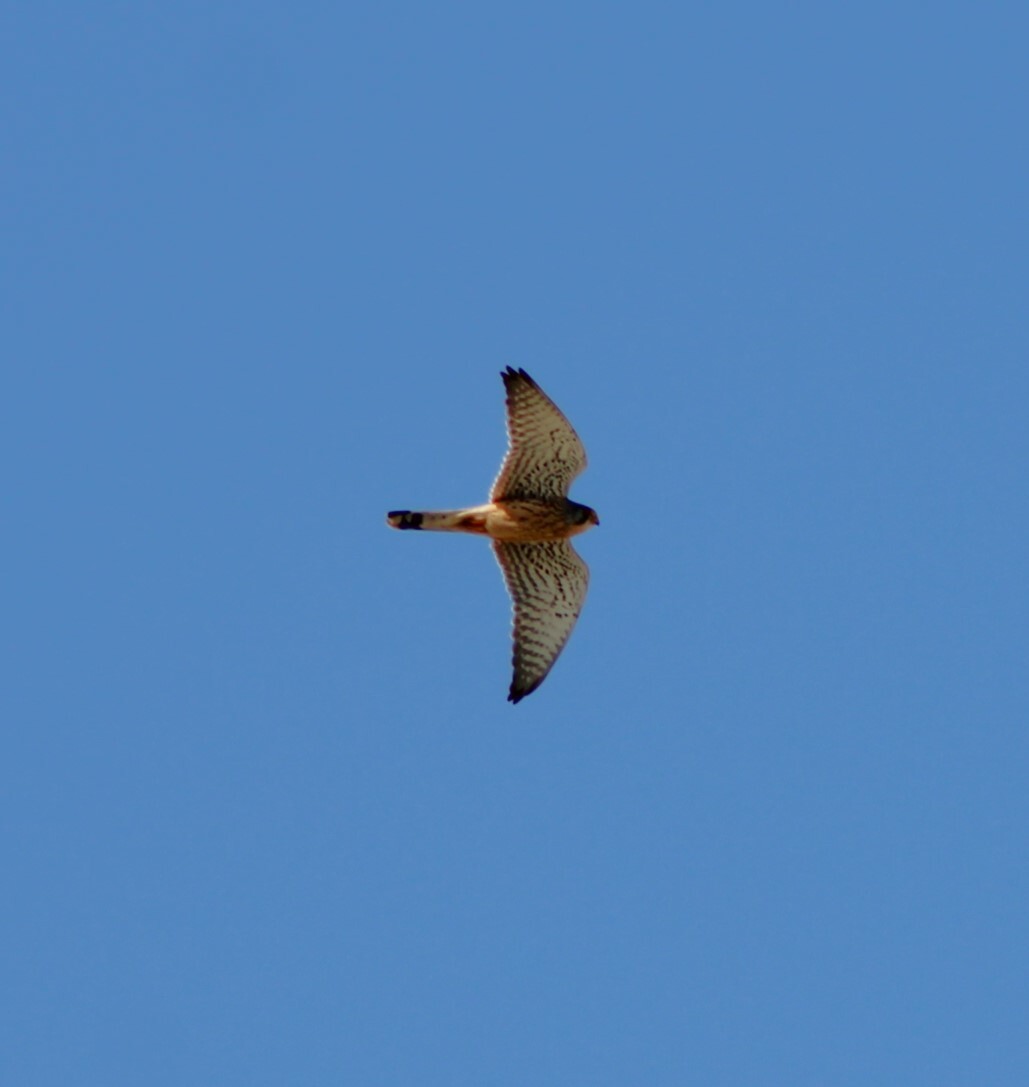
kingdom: Animalia
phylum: Chordata
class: Aves
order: Falconiformes
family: Falconidae
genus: Falco
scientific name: Falco tinnunculus
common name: Common kestrel
